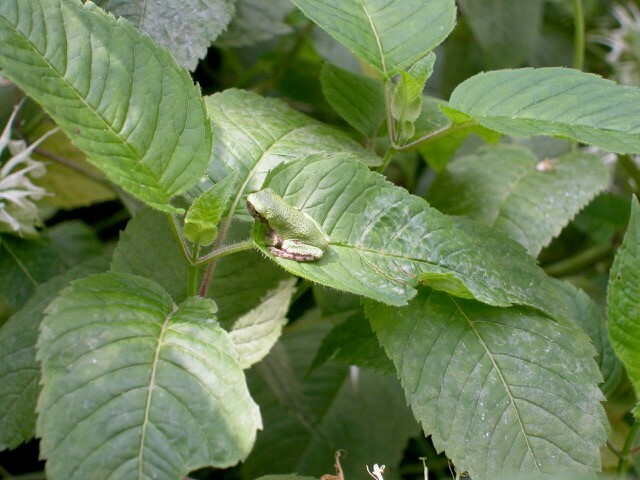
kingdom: Animalia
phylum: Chordata
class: Amphibia
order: Anura
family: Hylidae
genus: Dryophytes
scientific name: Dryophytes versicolor
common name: Gray treefrog
